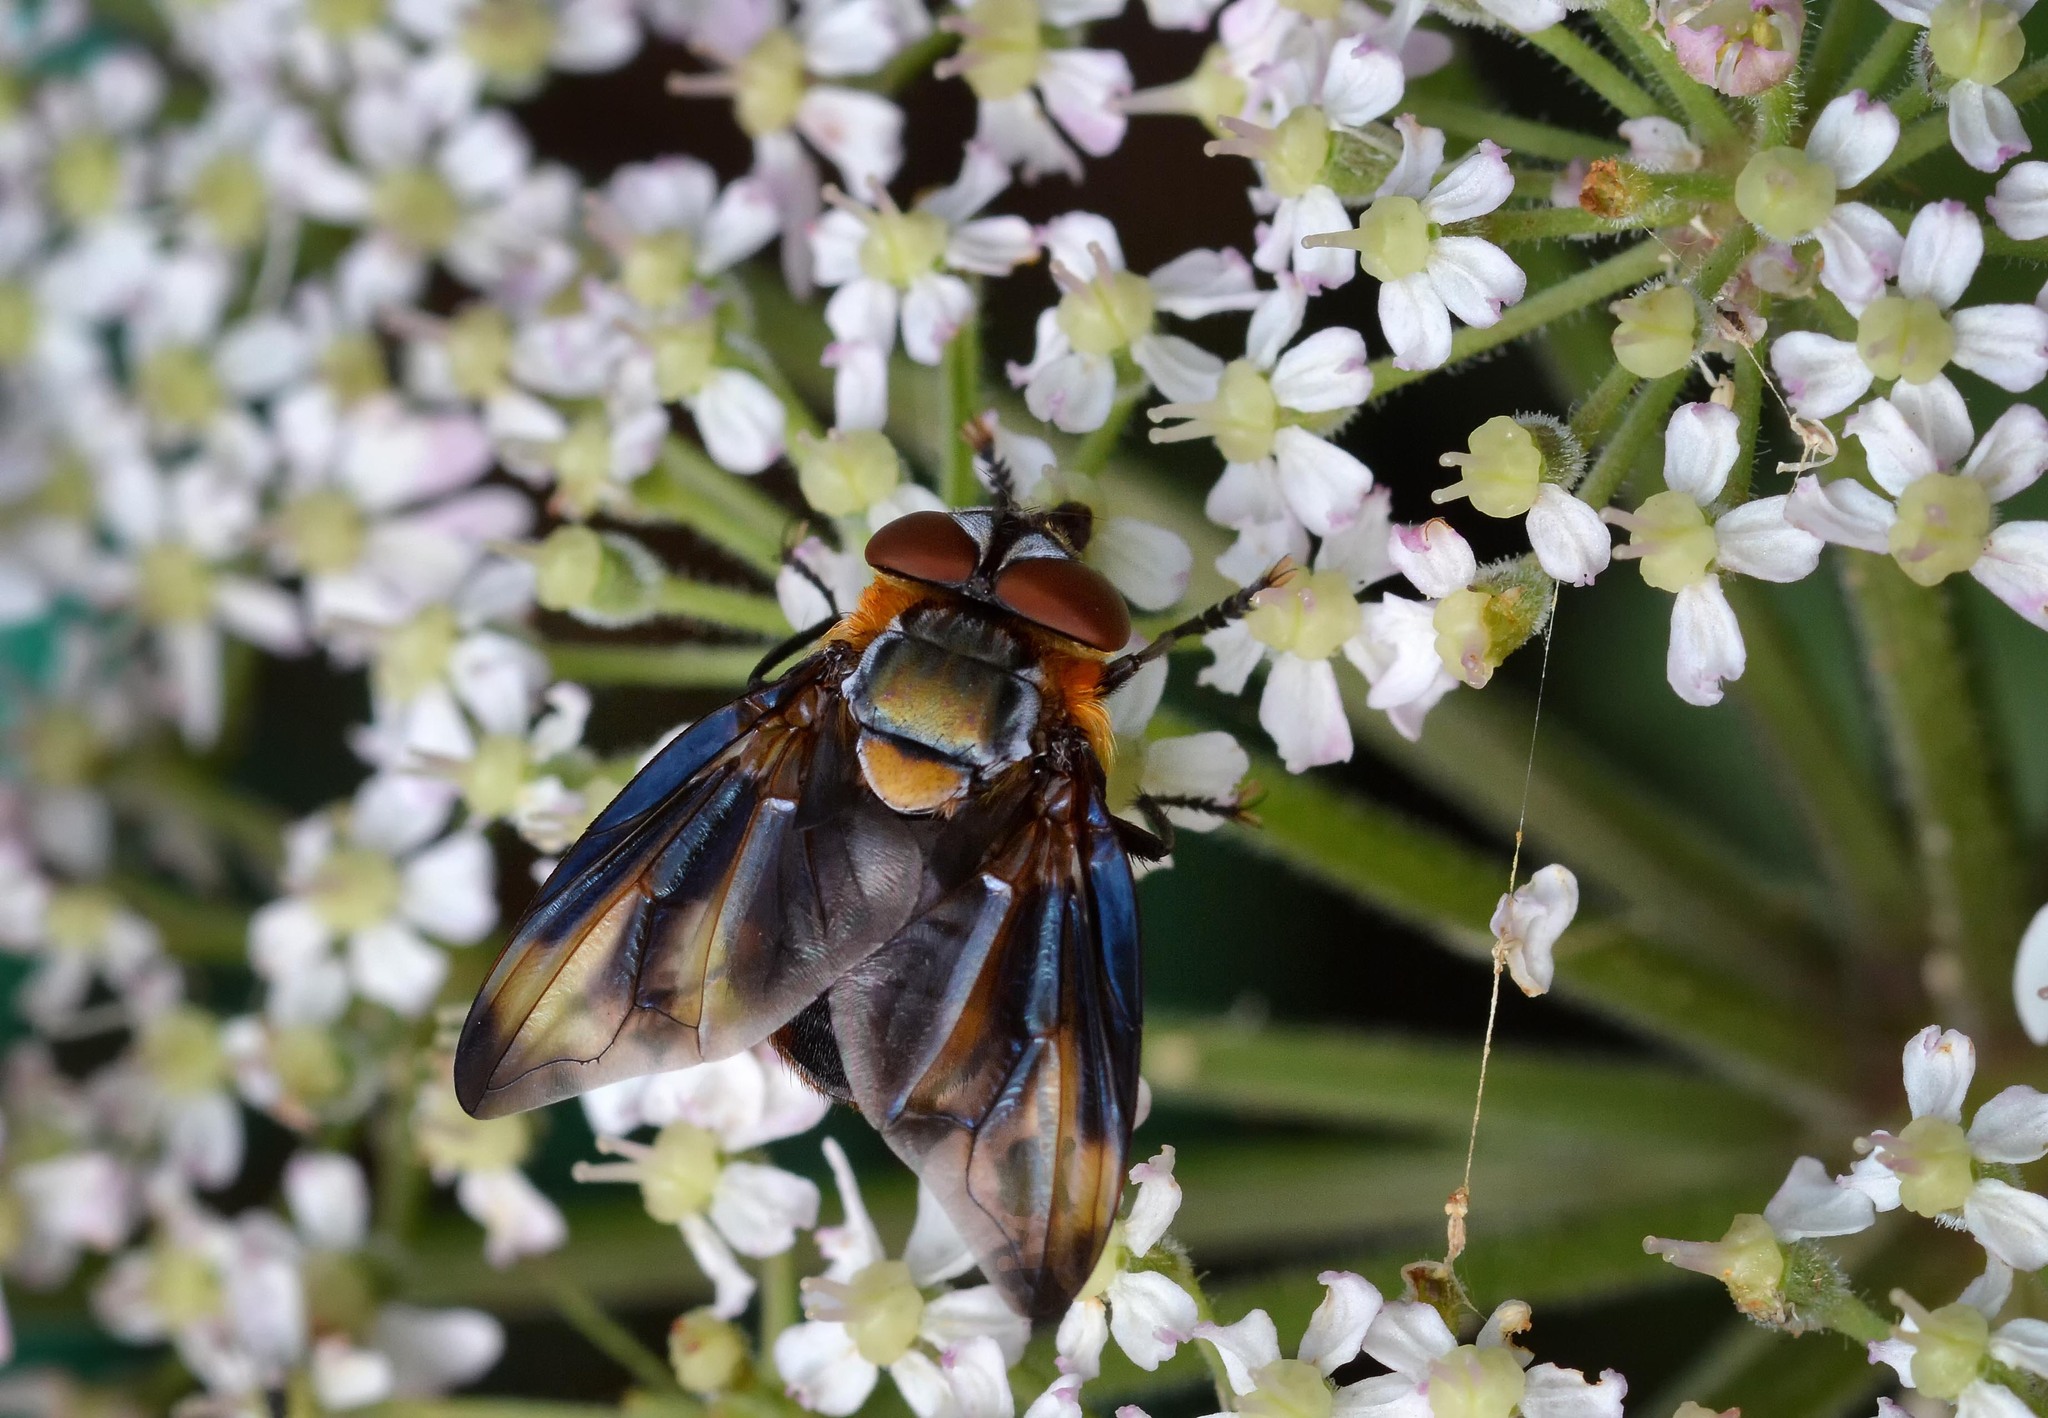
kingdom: Animalia
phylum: Arthropoda
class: Insecta
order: Diptera
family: Tachinidae
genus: Phasia
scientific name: Phasia hemiptera
